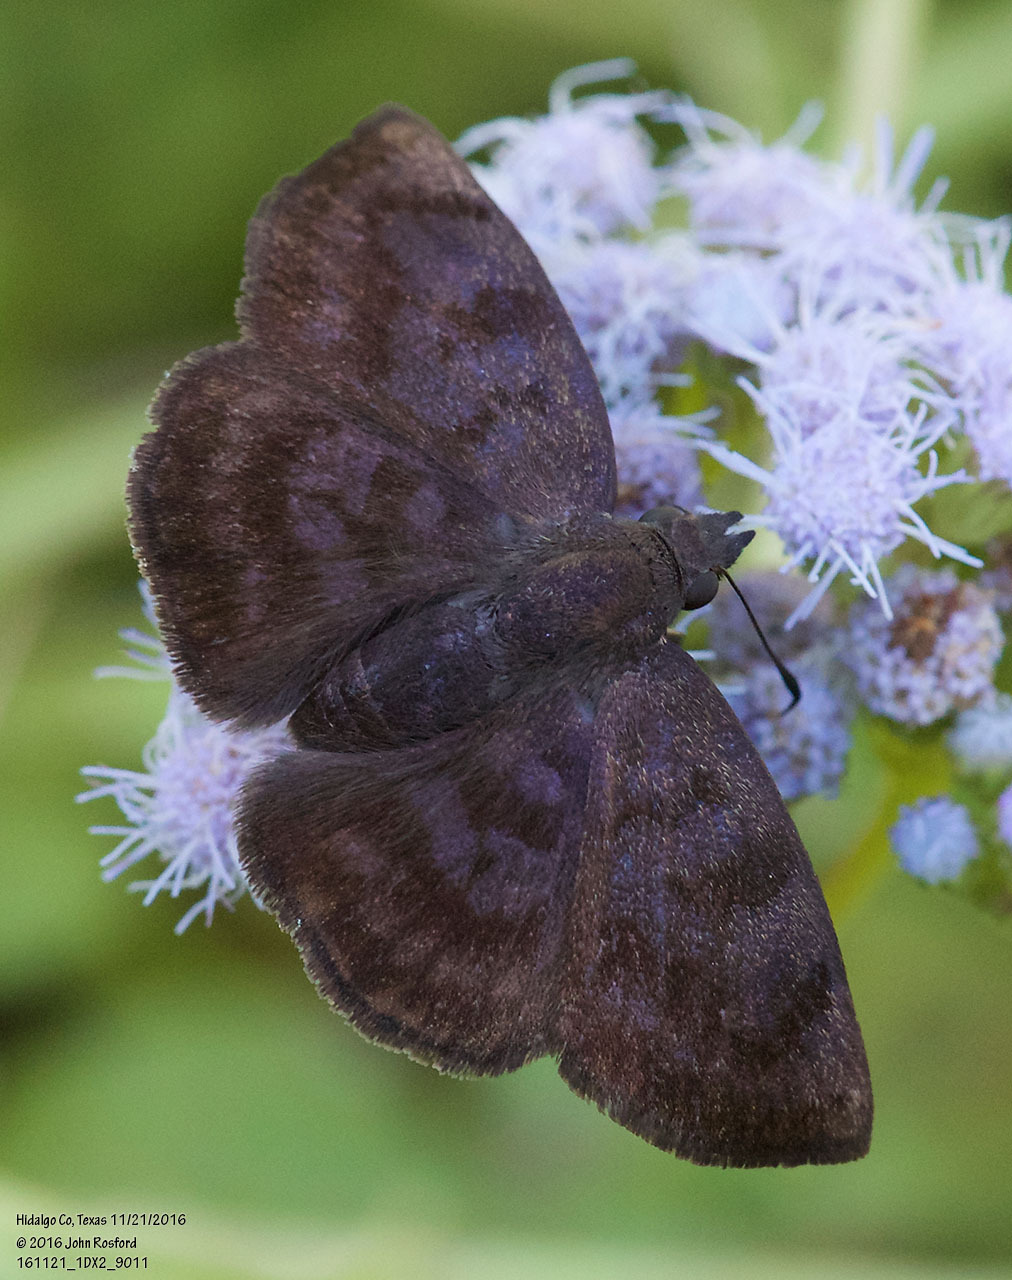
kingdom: Animalia
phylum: Arthropoda
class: Insecta
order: Lepidoptera
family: Hesperiidae
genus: Pellicia
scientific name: Pellicia costimacula
